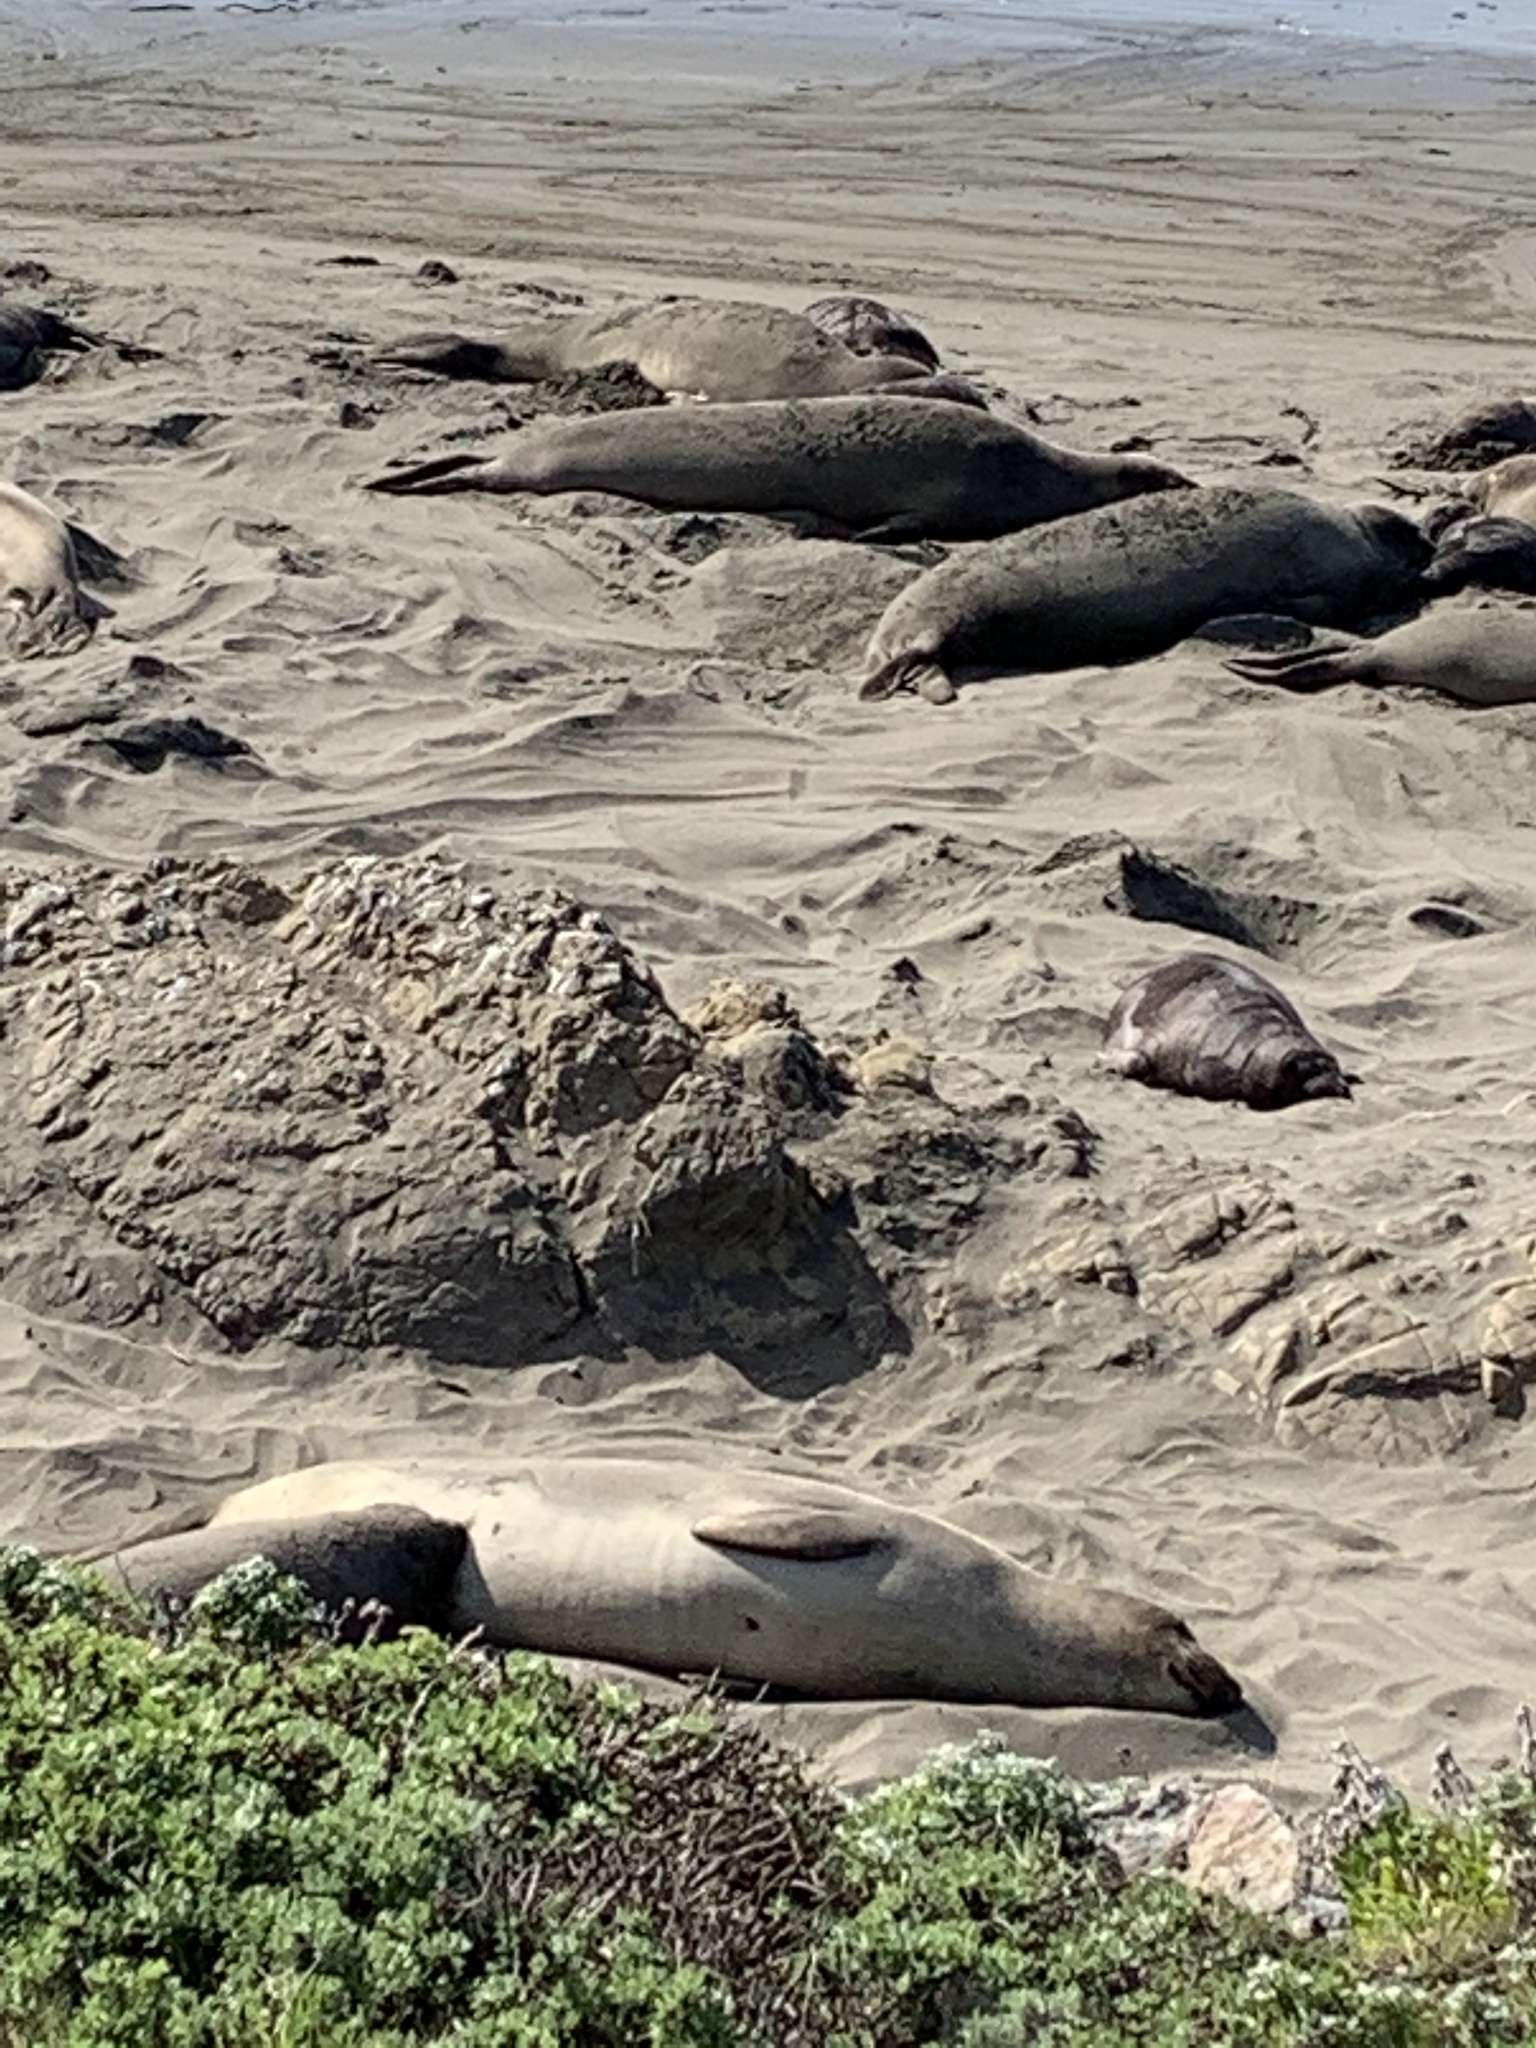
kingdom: Animalia
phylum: Chordata
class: Mammalia
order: Carnivora
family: Phocidae
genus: Mirounga
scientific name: Mirounga angustirostris
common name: Northern elephant seal
